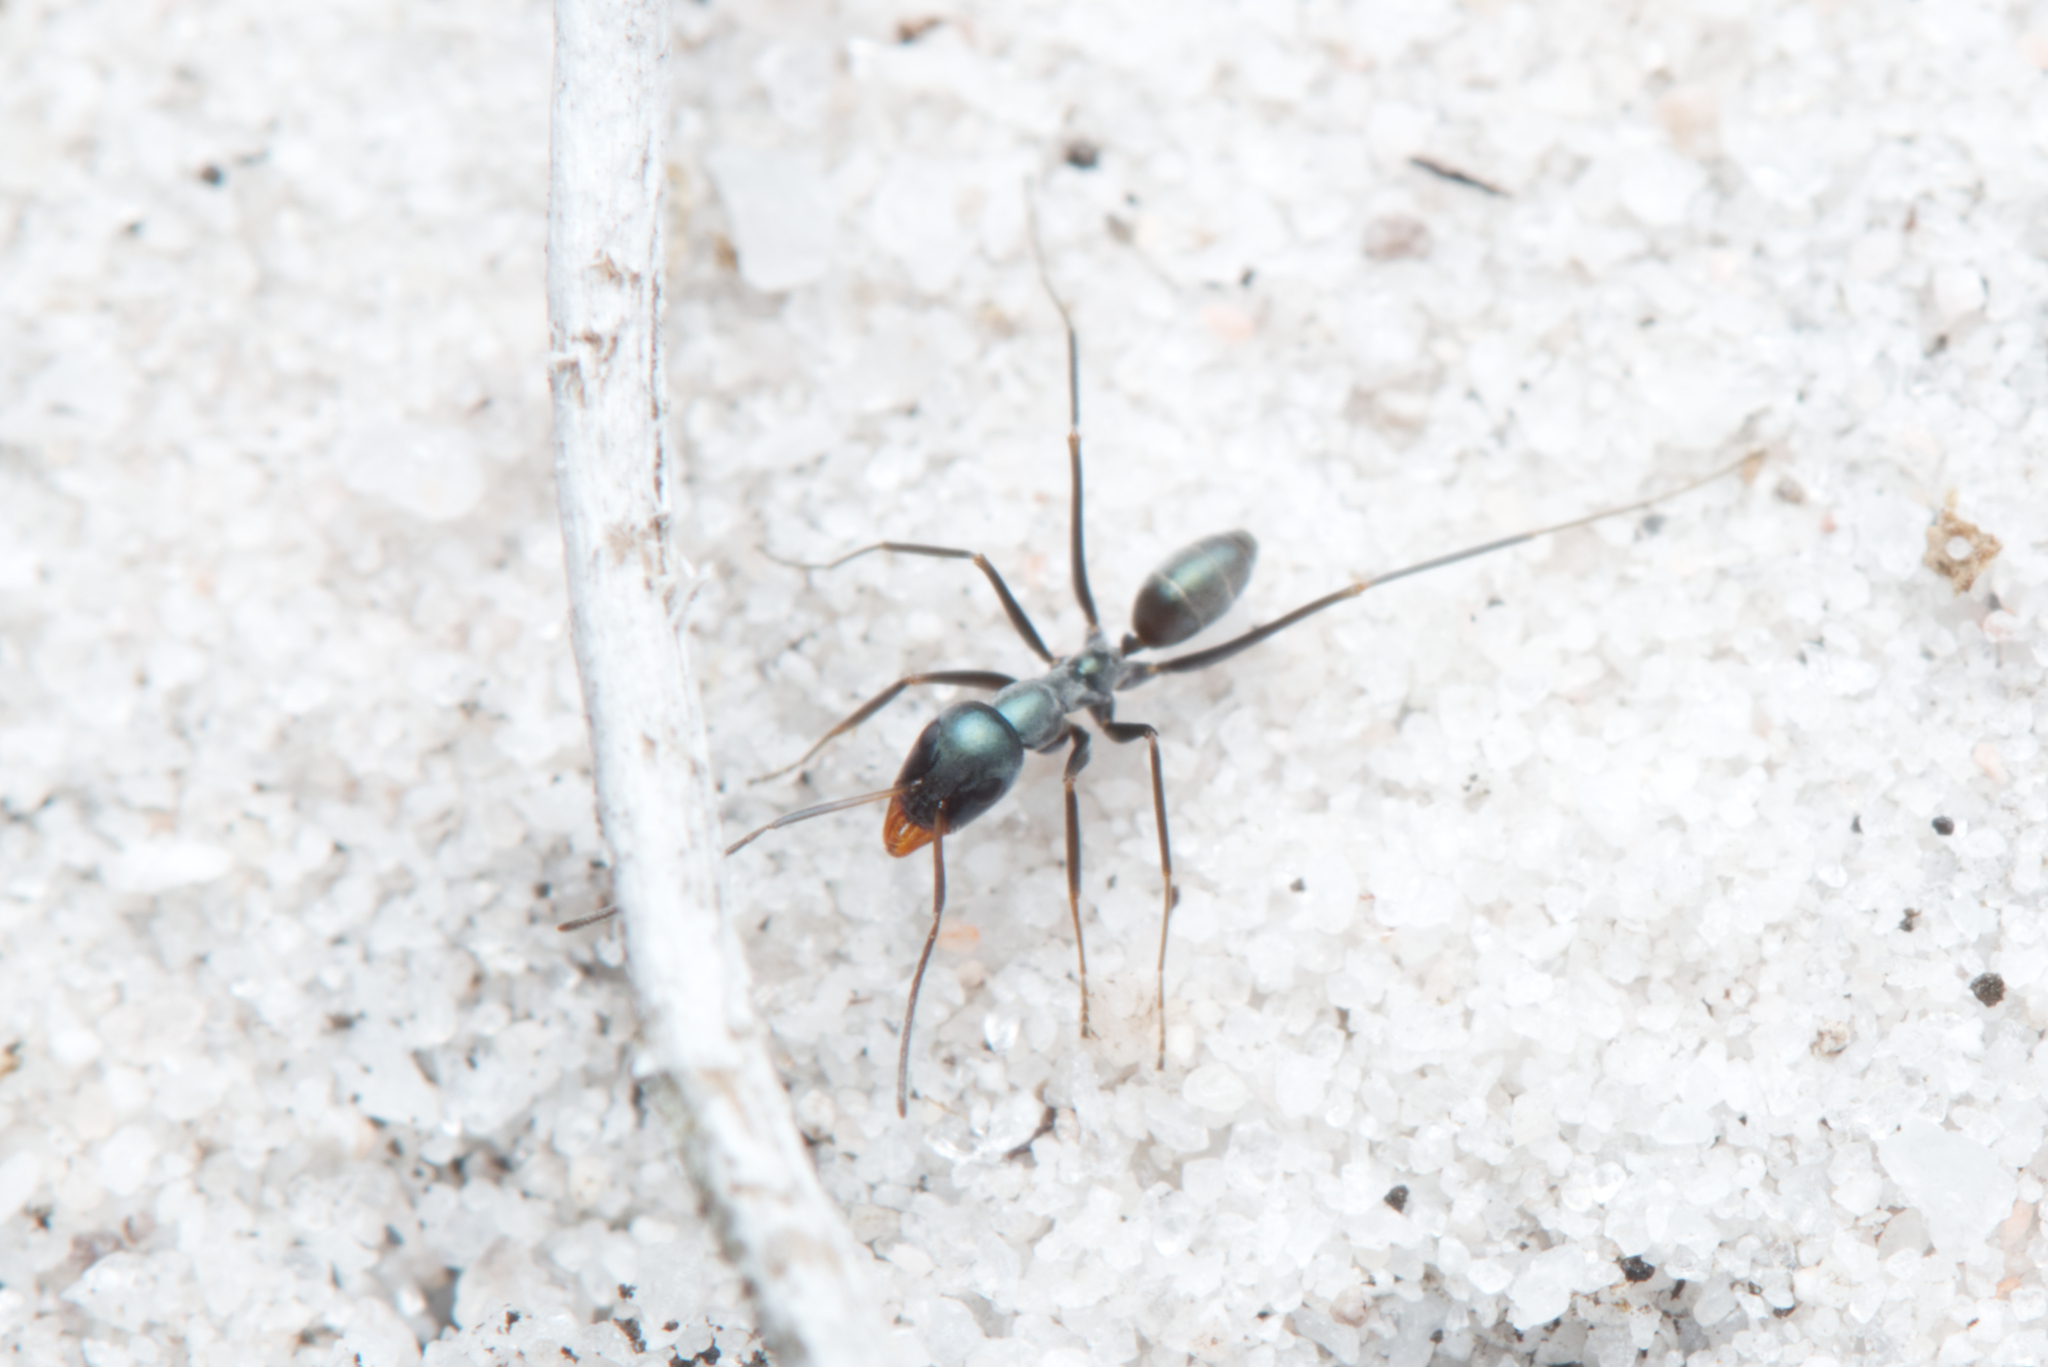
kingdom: Animalia
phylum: Arthropoda
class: Insecta
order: Hymenoptera
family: Formicidae
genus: Iridomyrmex
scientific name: Iridomyrmex bicknelli
